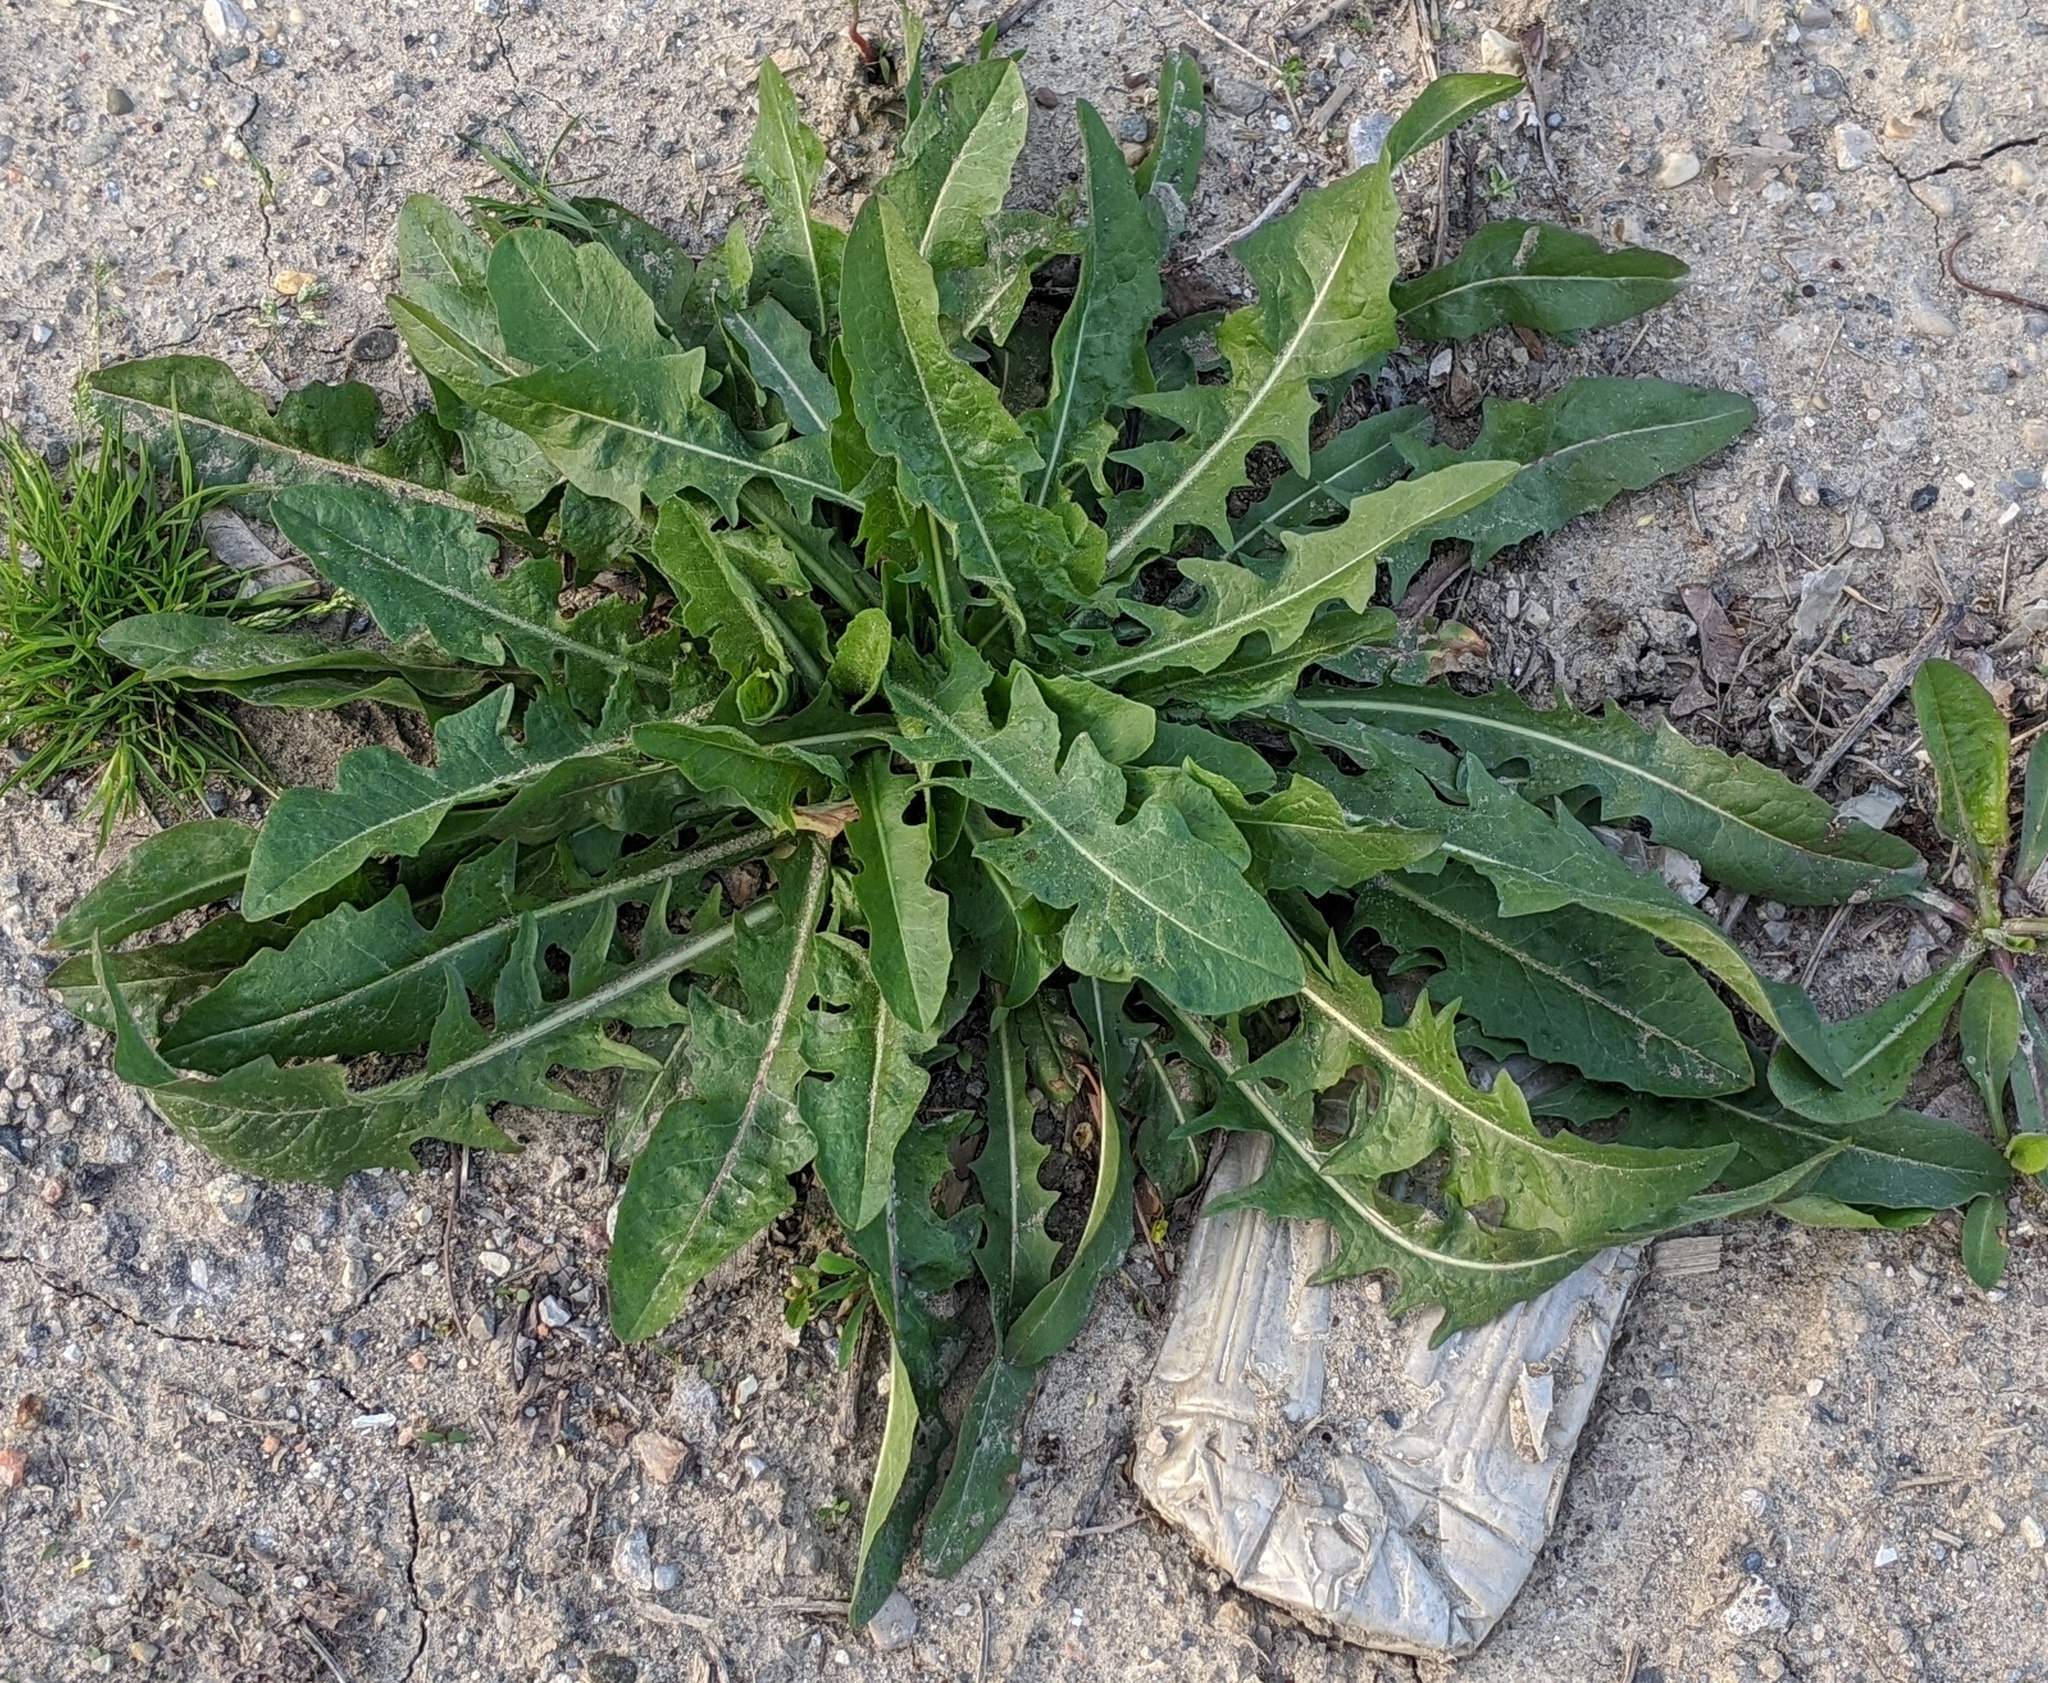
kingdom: Plantae
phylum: Tracheophyta
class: Magnoliopsida
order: Asterales
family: Asteraceae
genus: Cichorium
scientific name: Cichorium intybus
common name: Chicory
